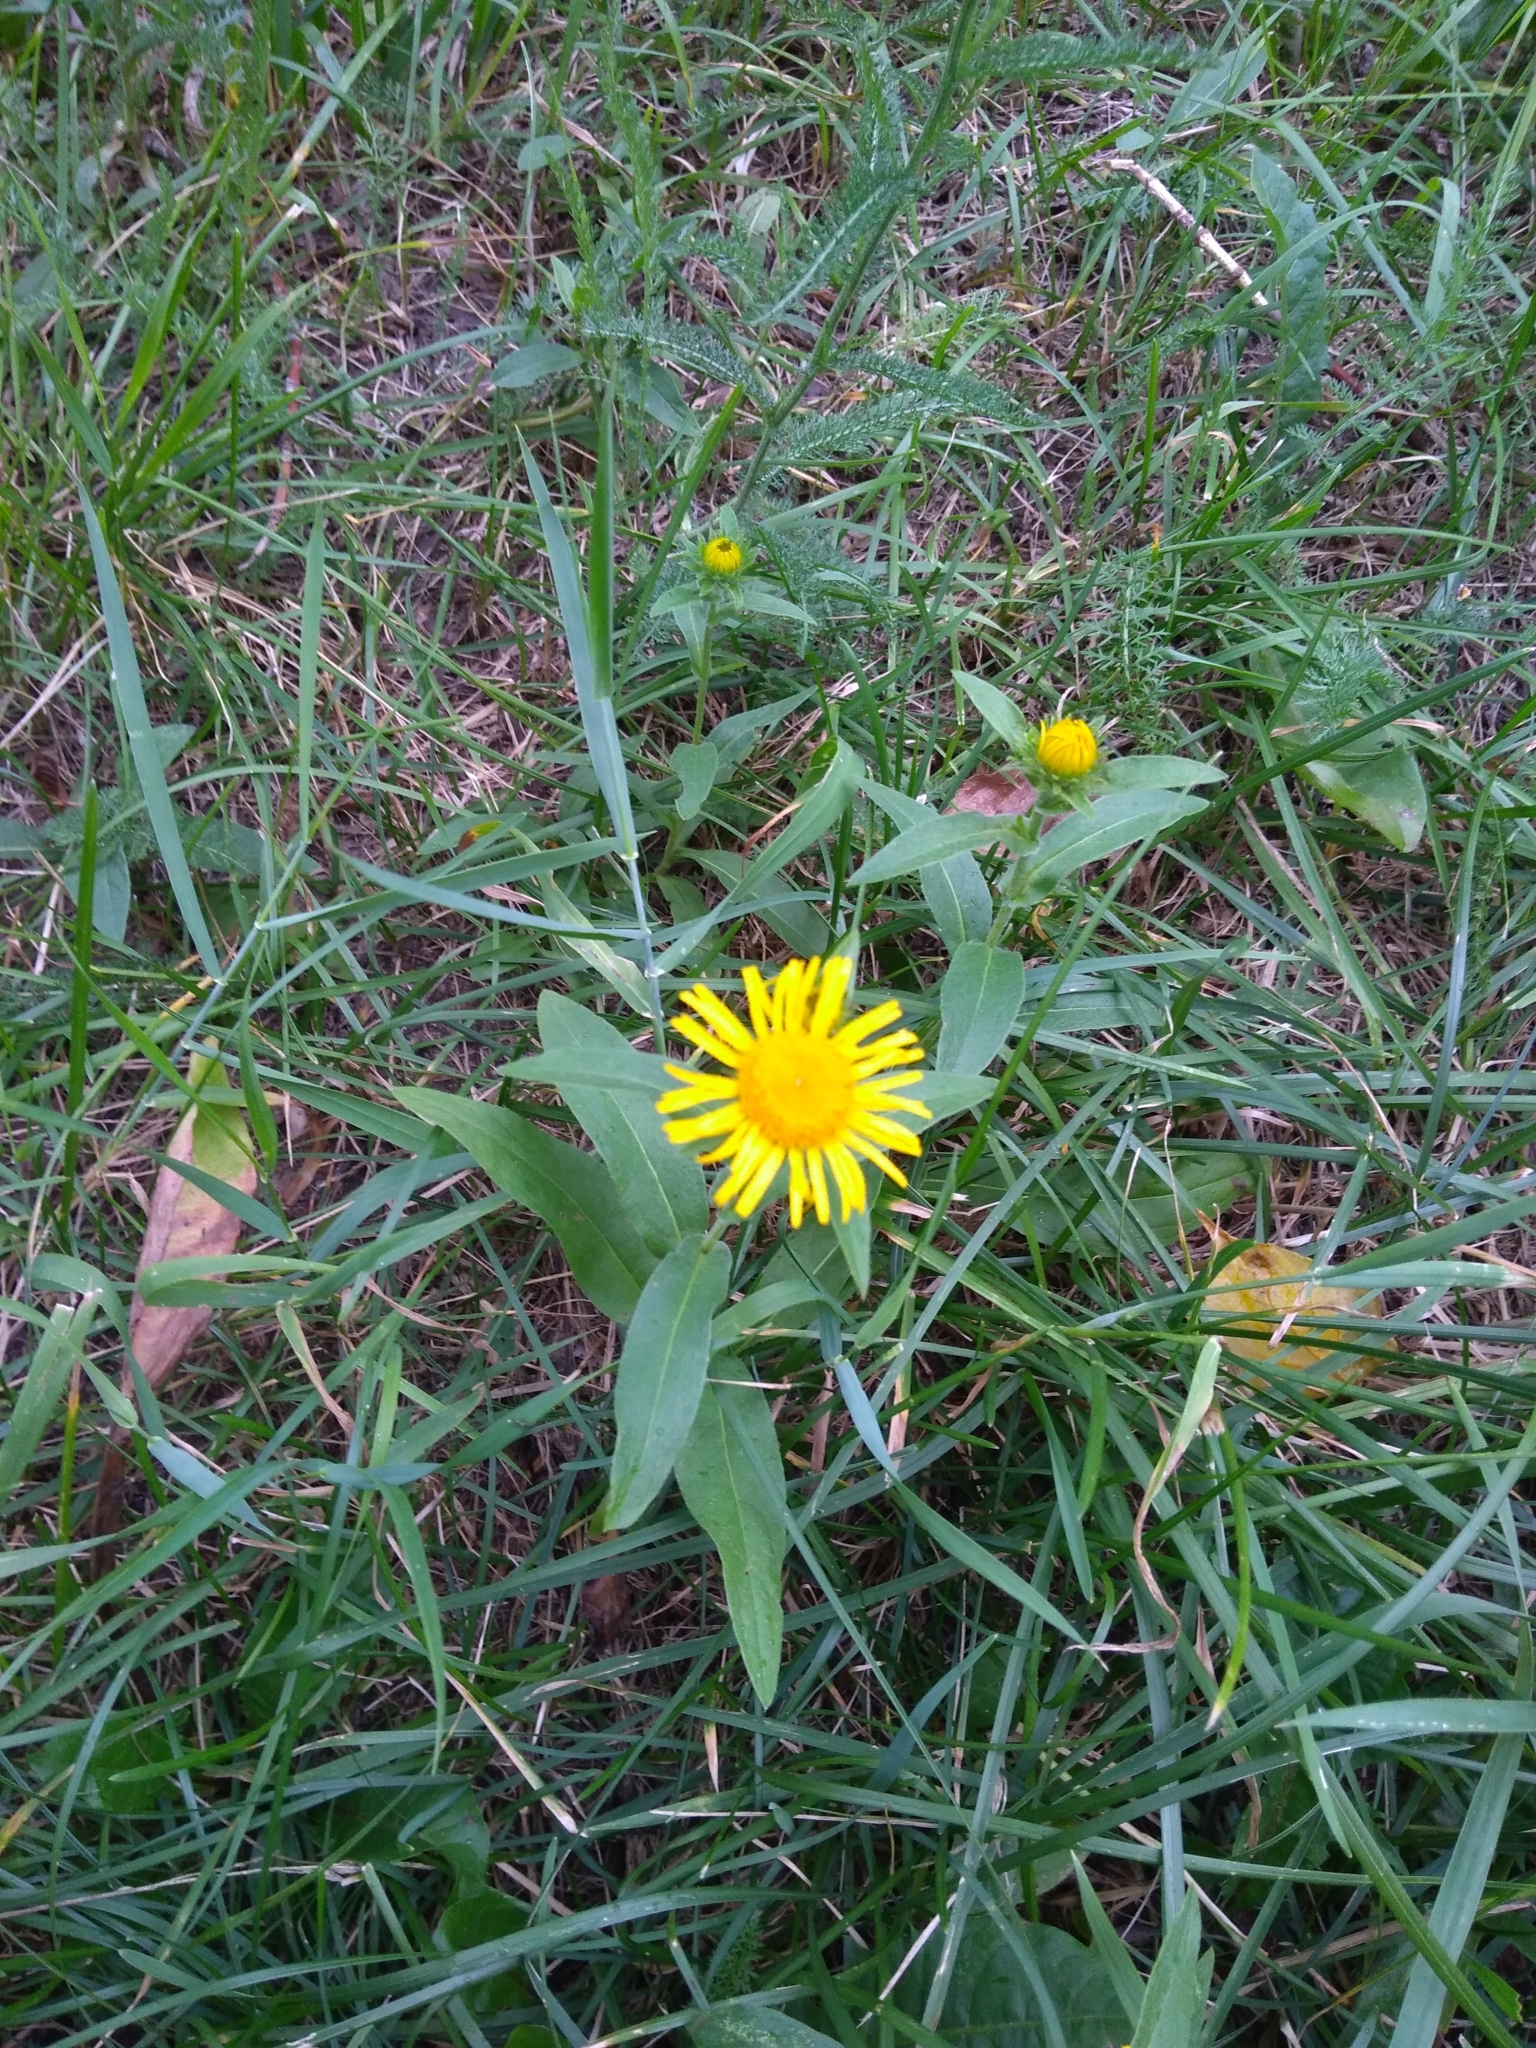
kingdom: Plantae
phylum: Tracheophyta
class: Magnoliopsida
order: Asterales
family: Asteraceae
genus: Pentanema
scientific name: Pentanema britannicum
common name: British elecampane
